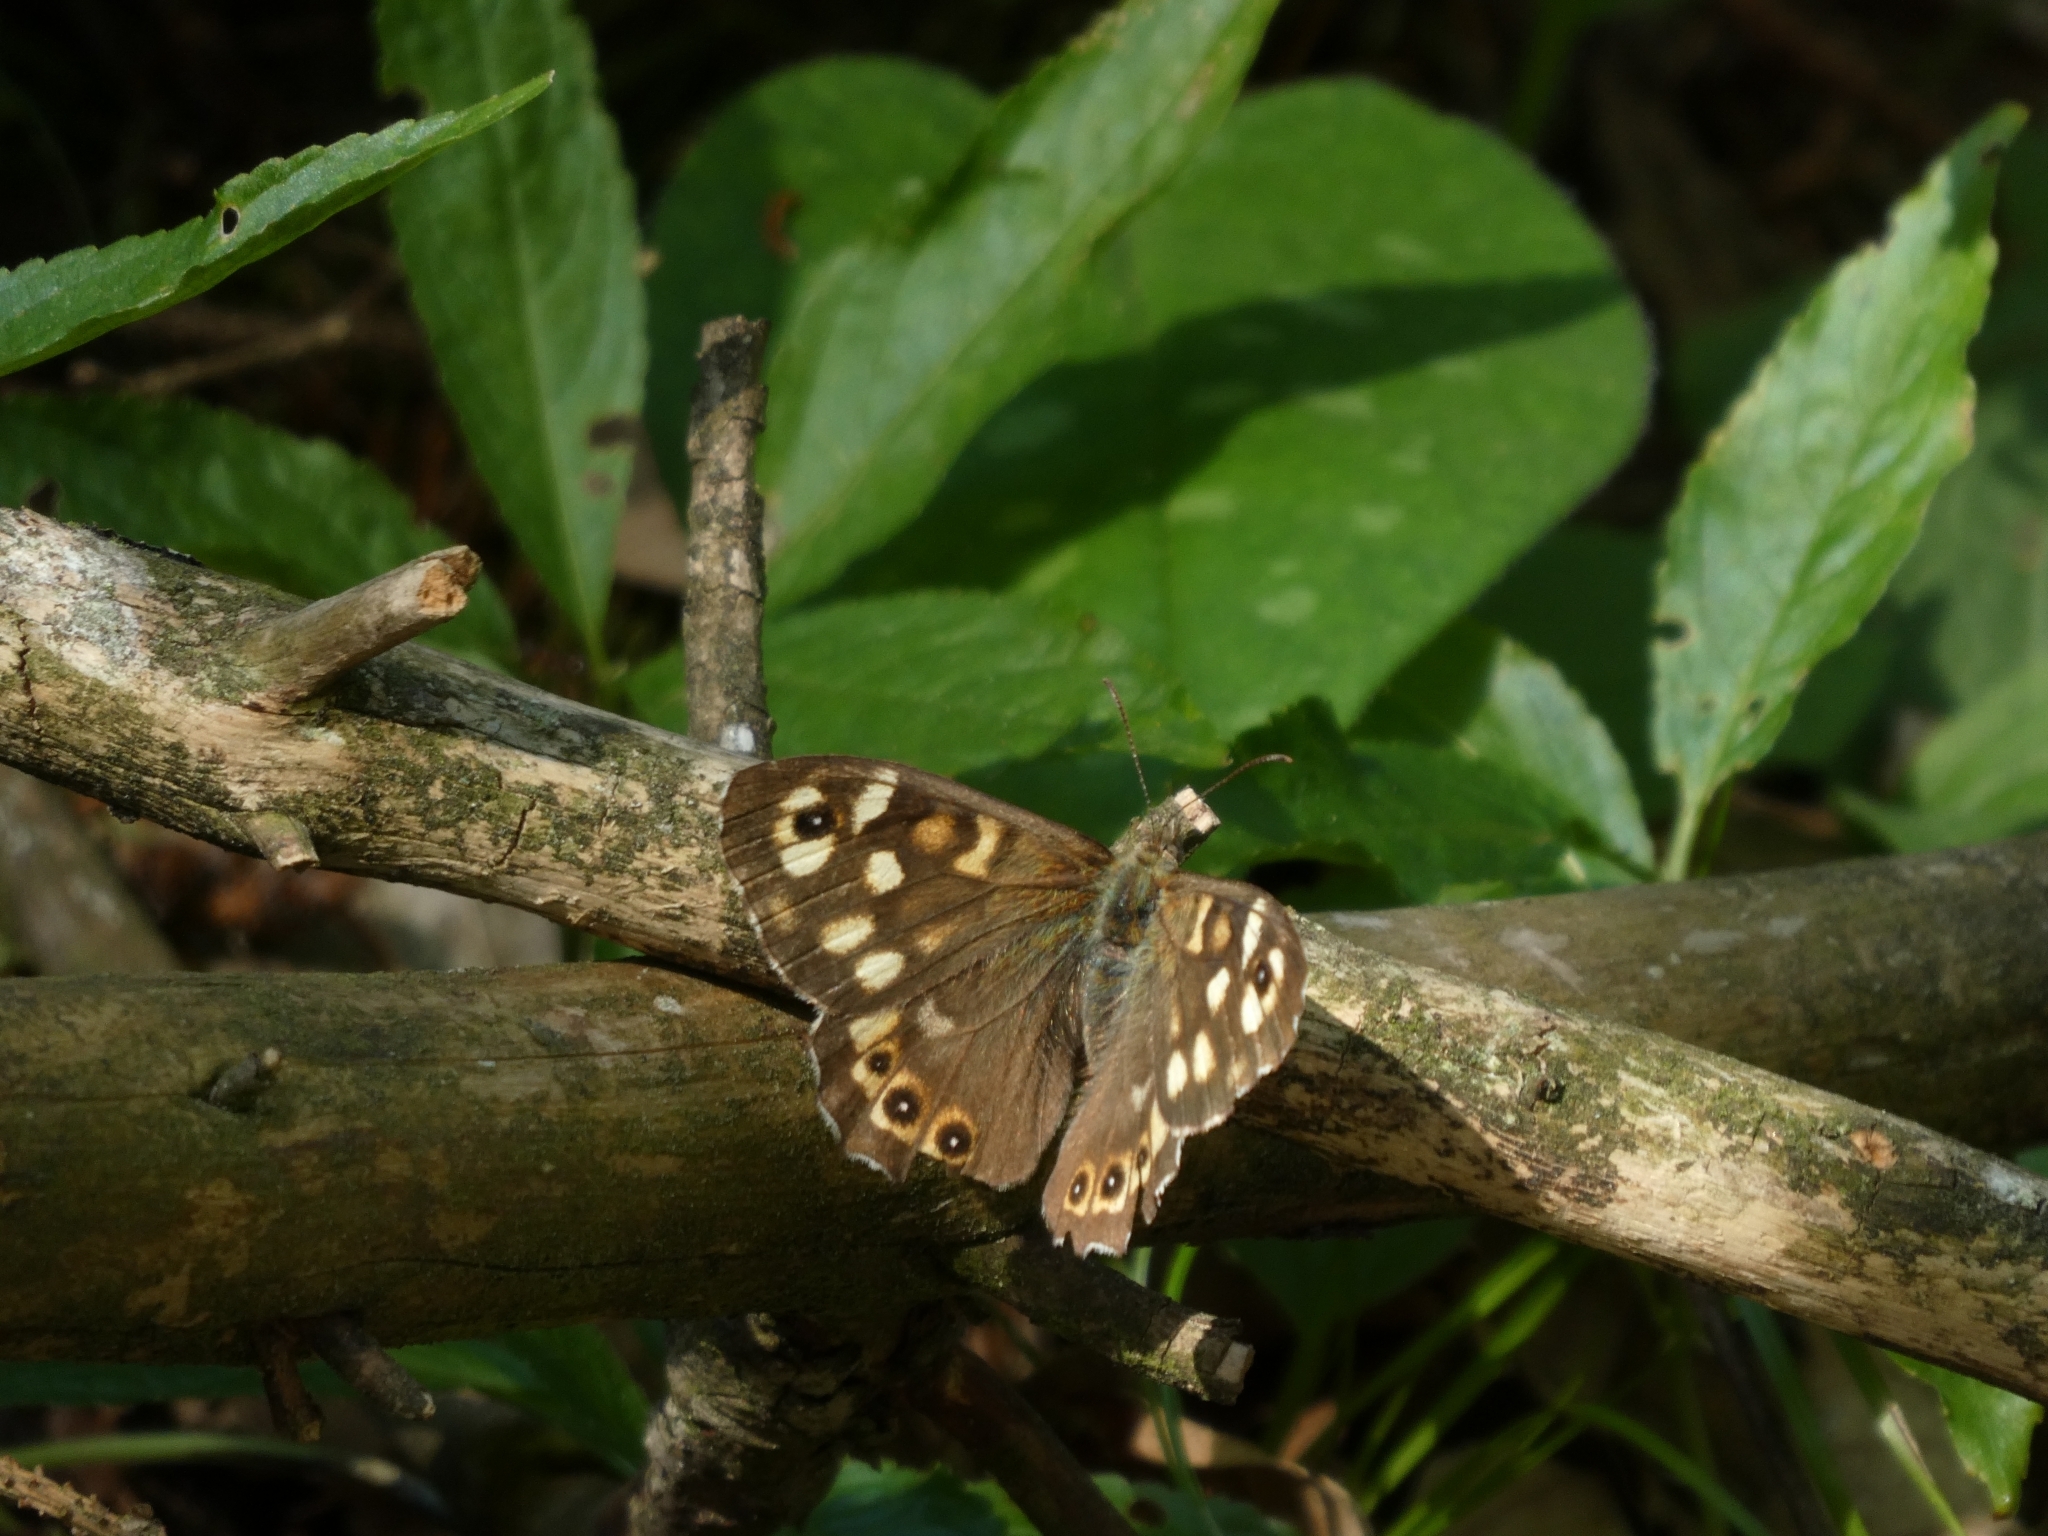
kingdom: Animalia
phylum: Arthropoda
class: Insecta
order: Lepidoptera
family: Nymphalidae
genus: Pararge
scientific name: Pararge aegeria
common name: Speckled wood
